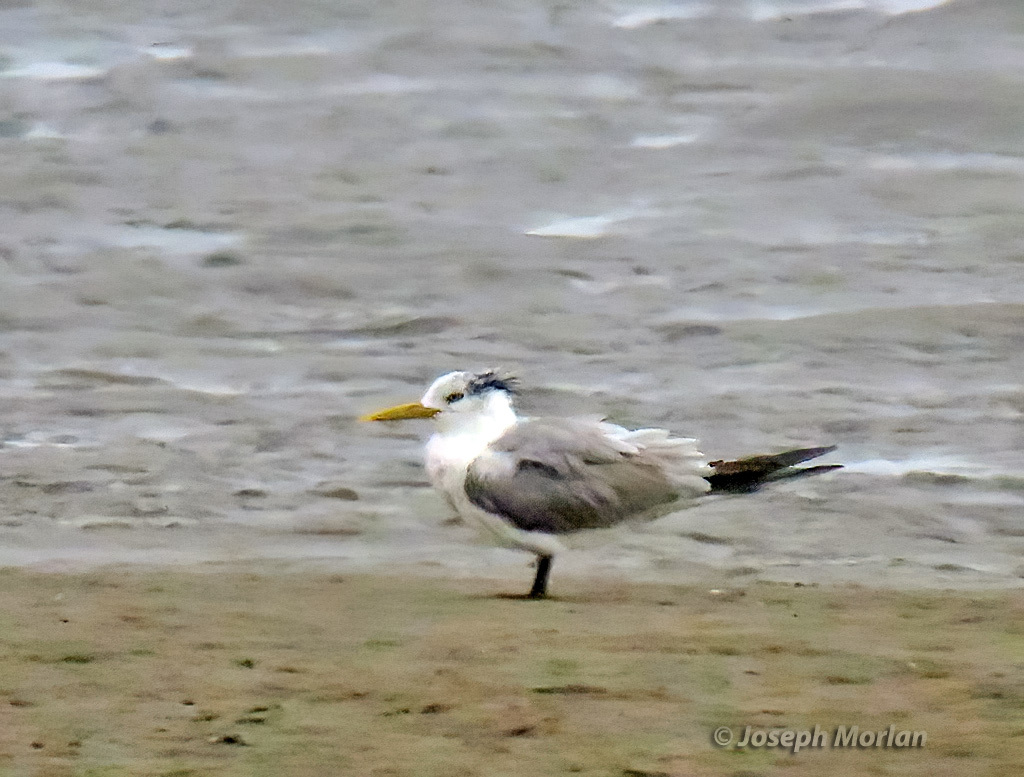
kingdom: Animalia
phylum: Chordata
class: Aves
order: Charadriiformes
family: Laridae
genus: Thalasseus
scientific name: Thalasseus bergii
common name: Greater crested tern
